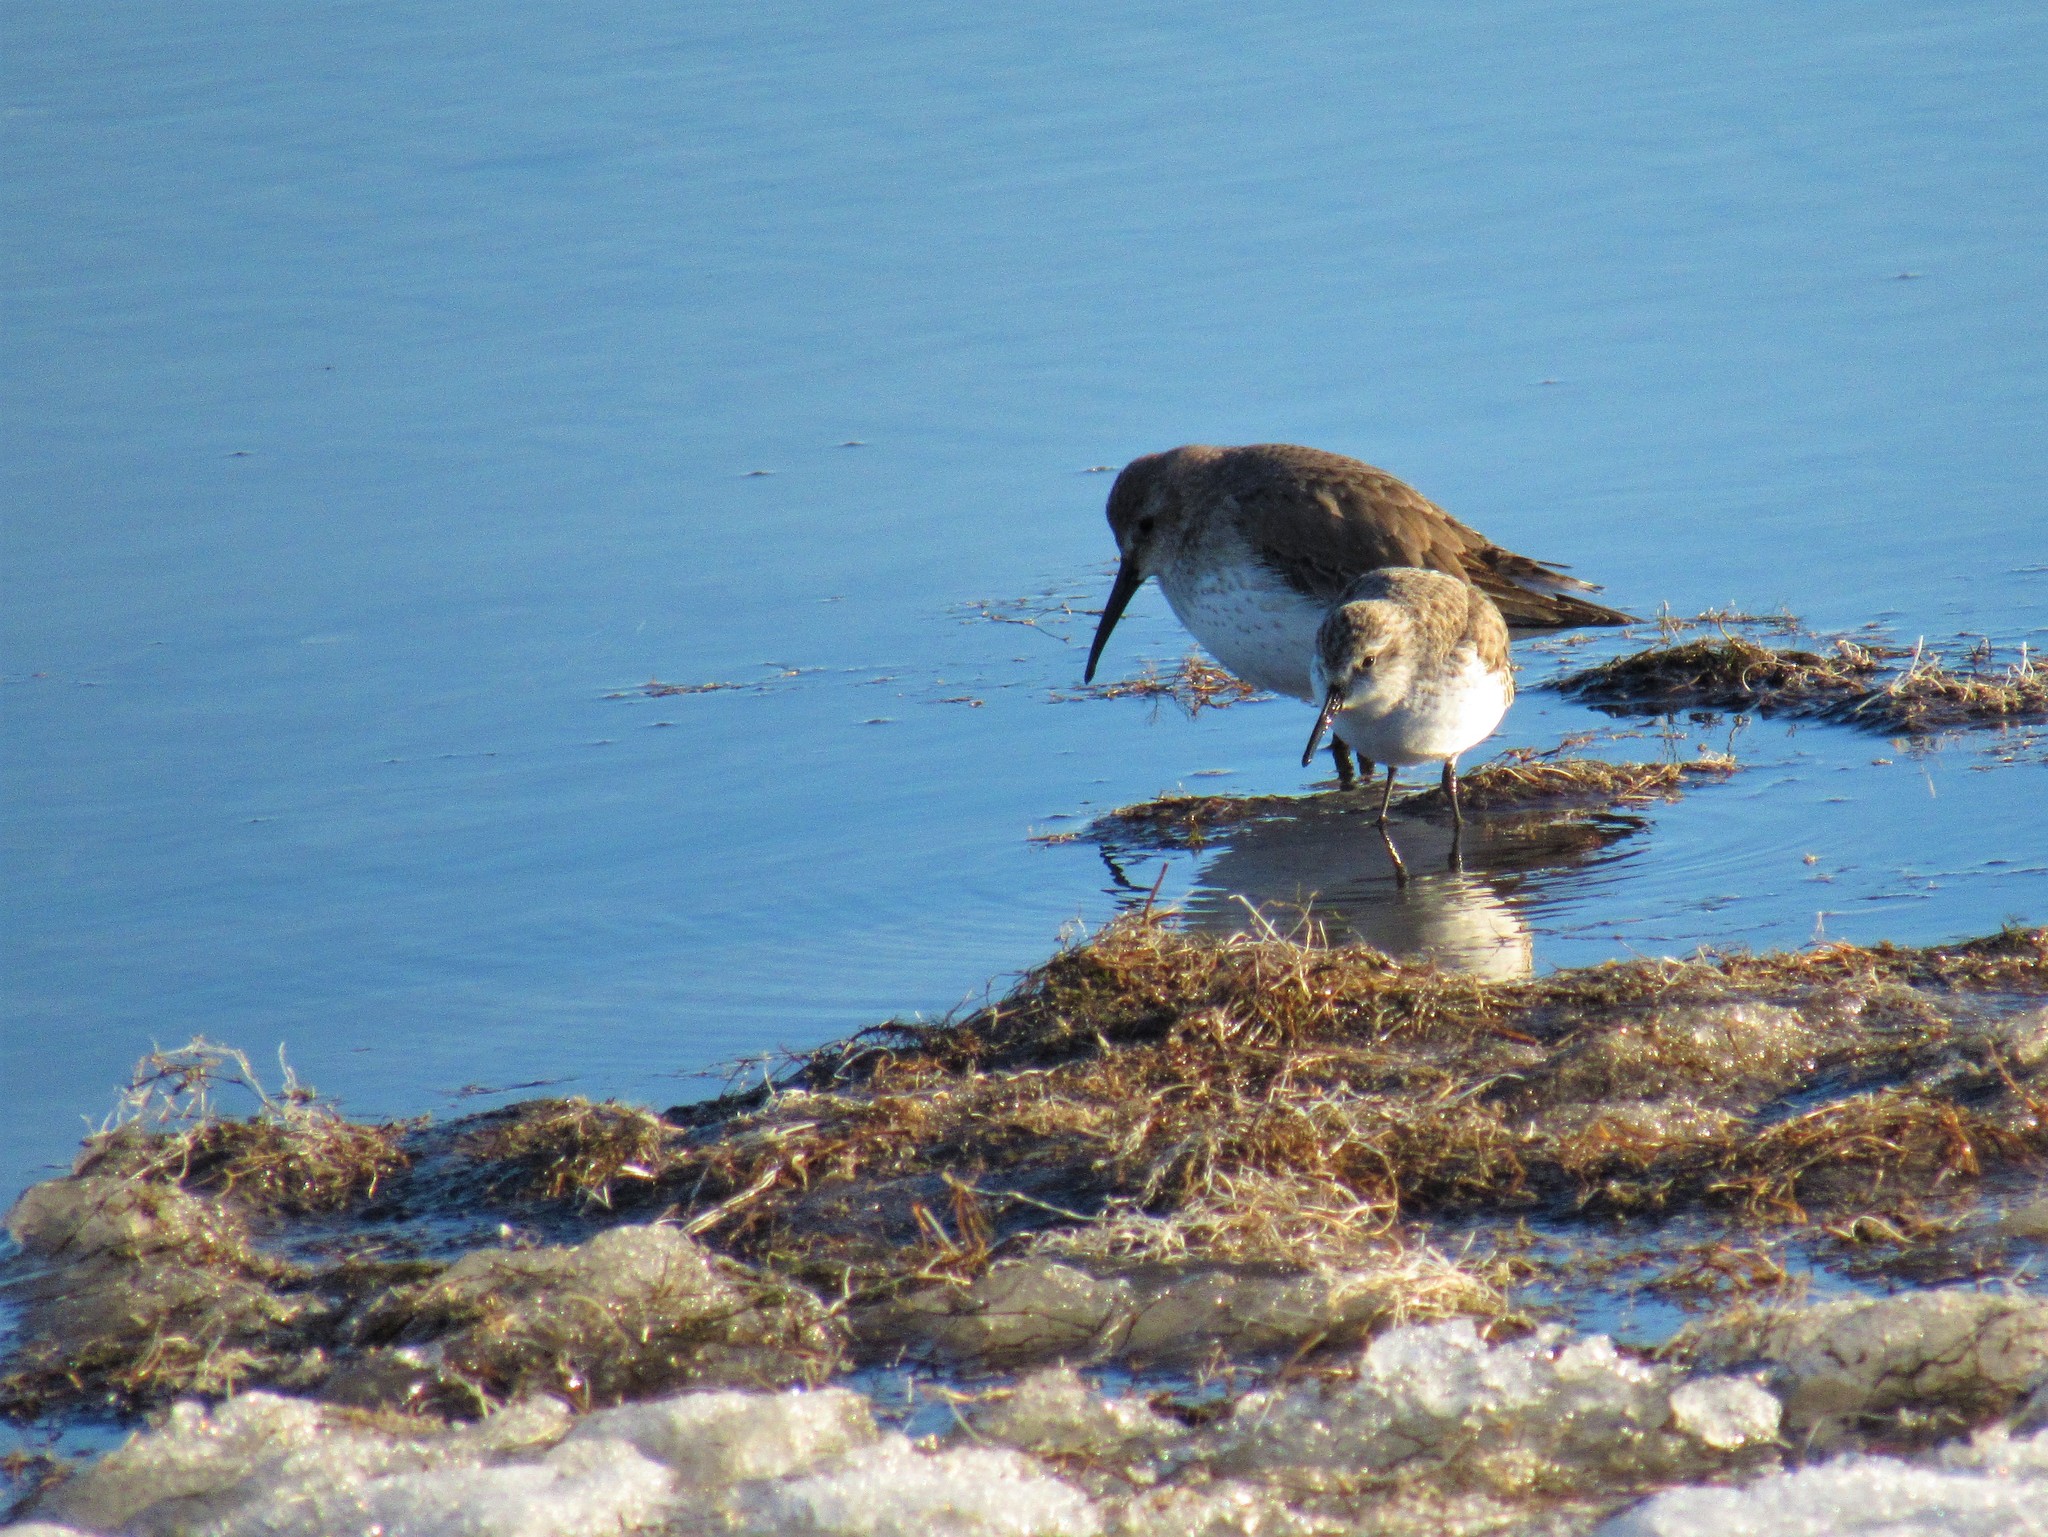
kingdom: Animalia
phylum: Chordata
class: Aves
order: Charadriiformes
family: Scolopacidae
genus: Calidris
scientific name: Calidris alpina
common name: Dunlin
